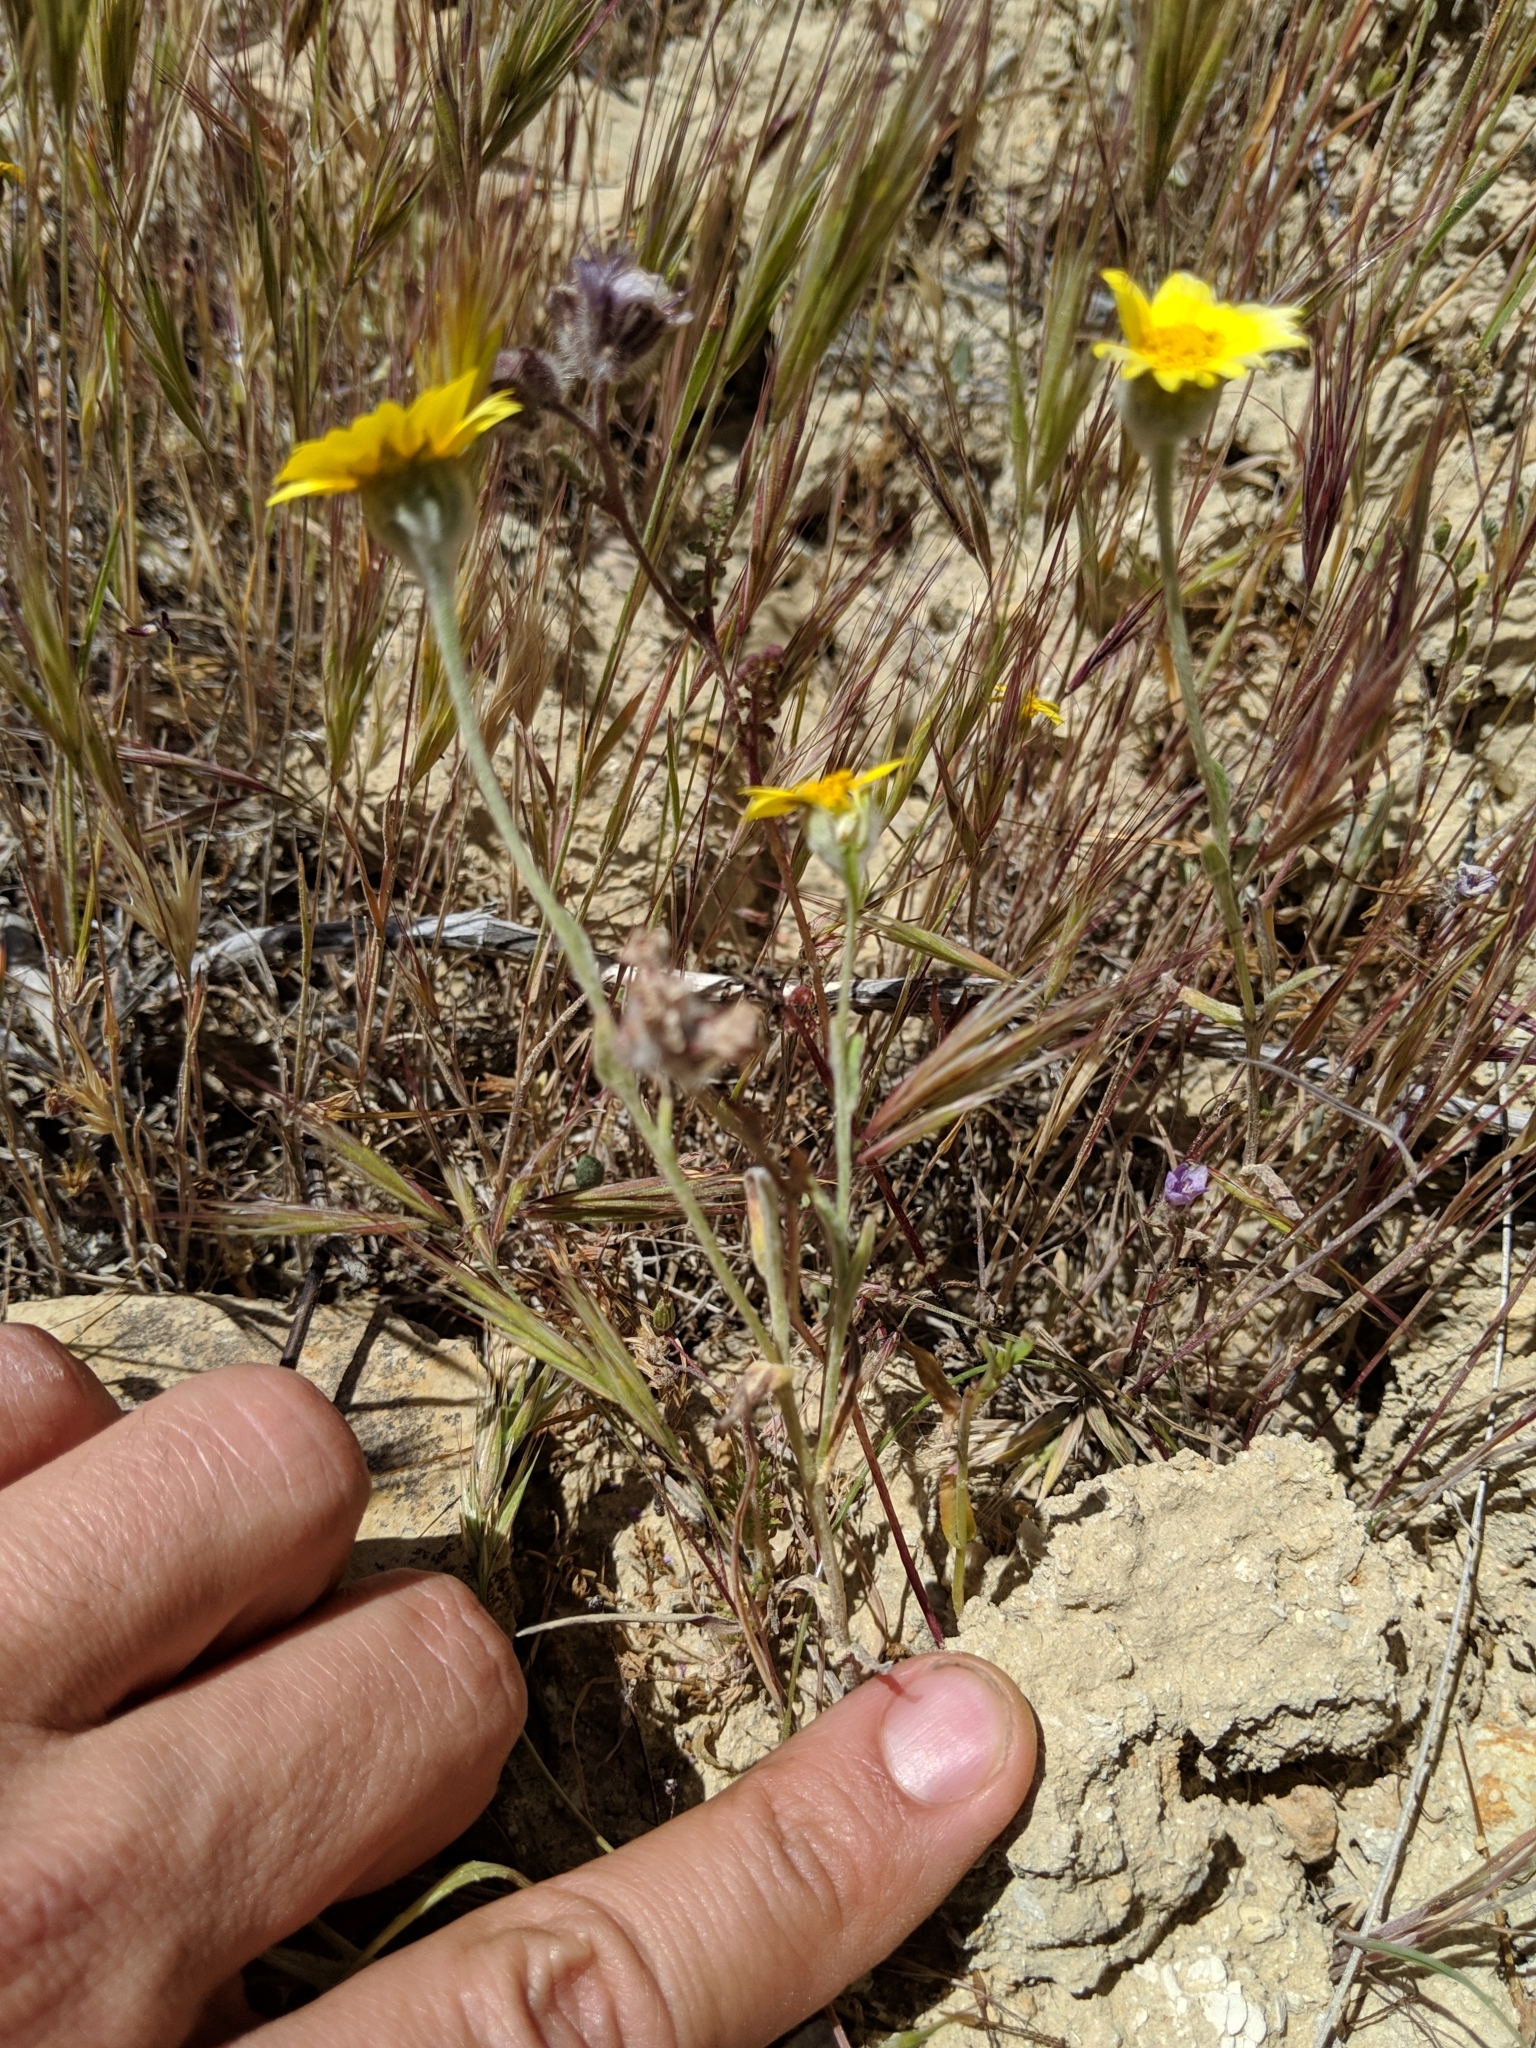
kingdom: Plantae
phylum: Tracheophyta
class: Magnoliopsida
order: Asterales
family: Asteraceae
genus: Monolopia
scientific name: Monolopia lanceolata
